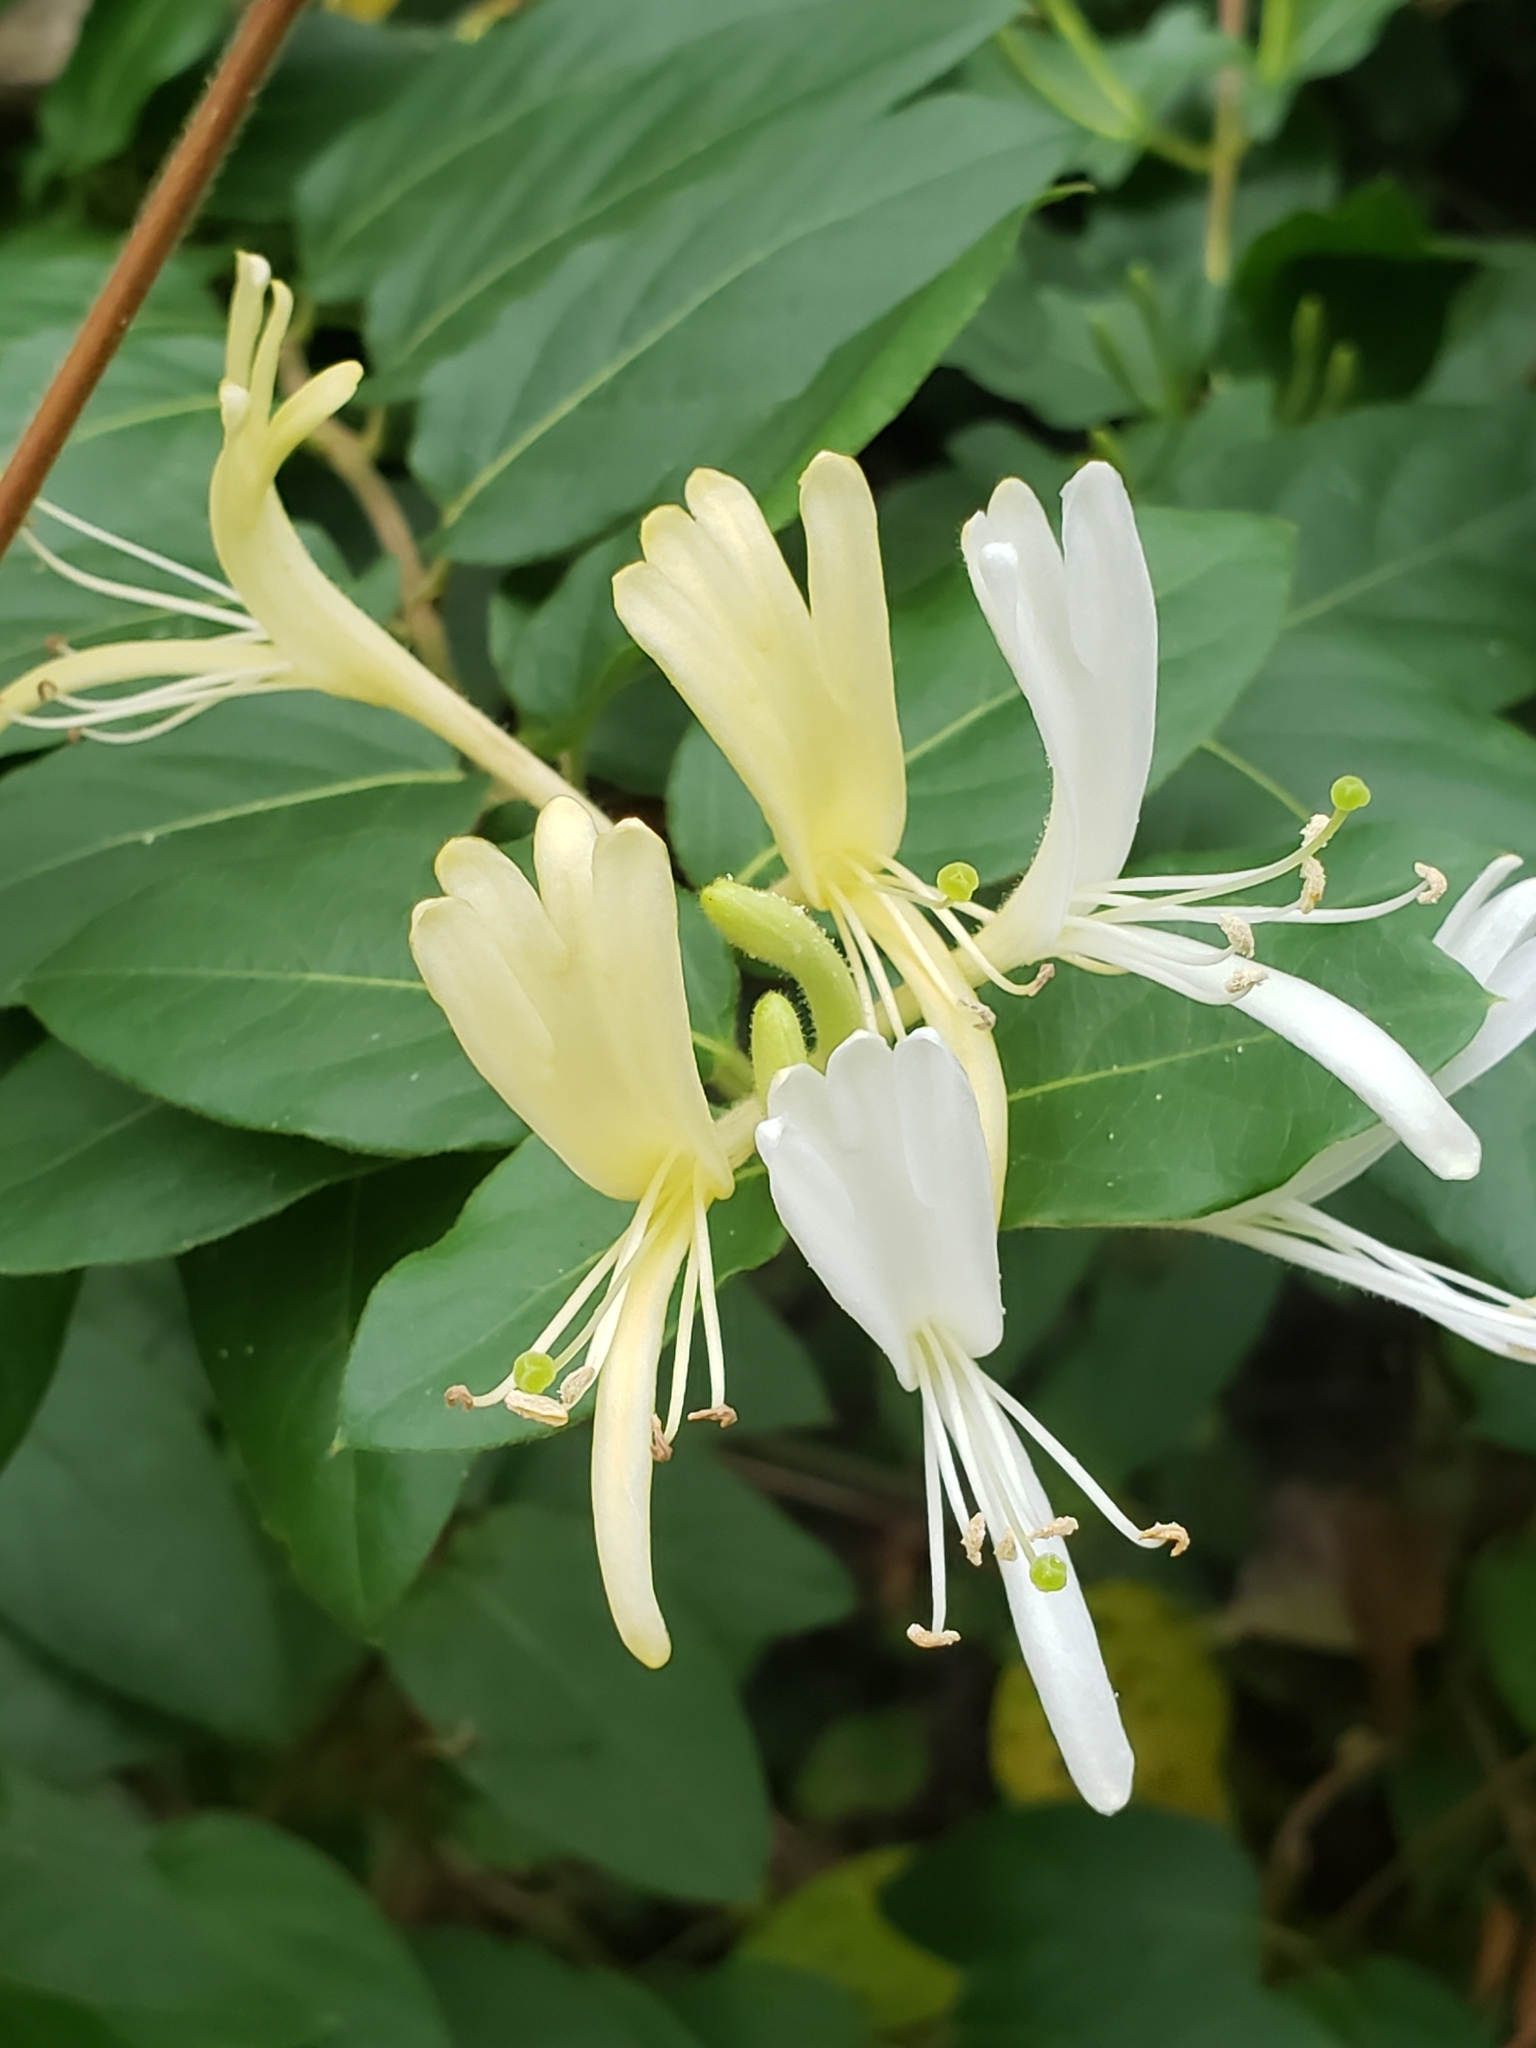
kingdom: Plantae
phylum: Tracheophyta
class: Magnoliopsida
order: Dipsacales
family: Caprifoliaceae
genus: Lonicera
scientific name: Lonicera japonica
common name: Japanese honeysuckle
